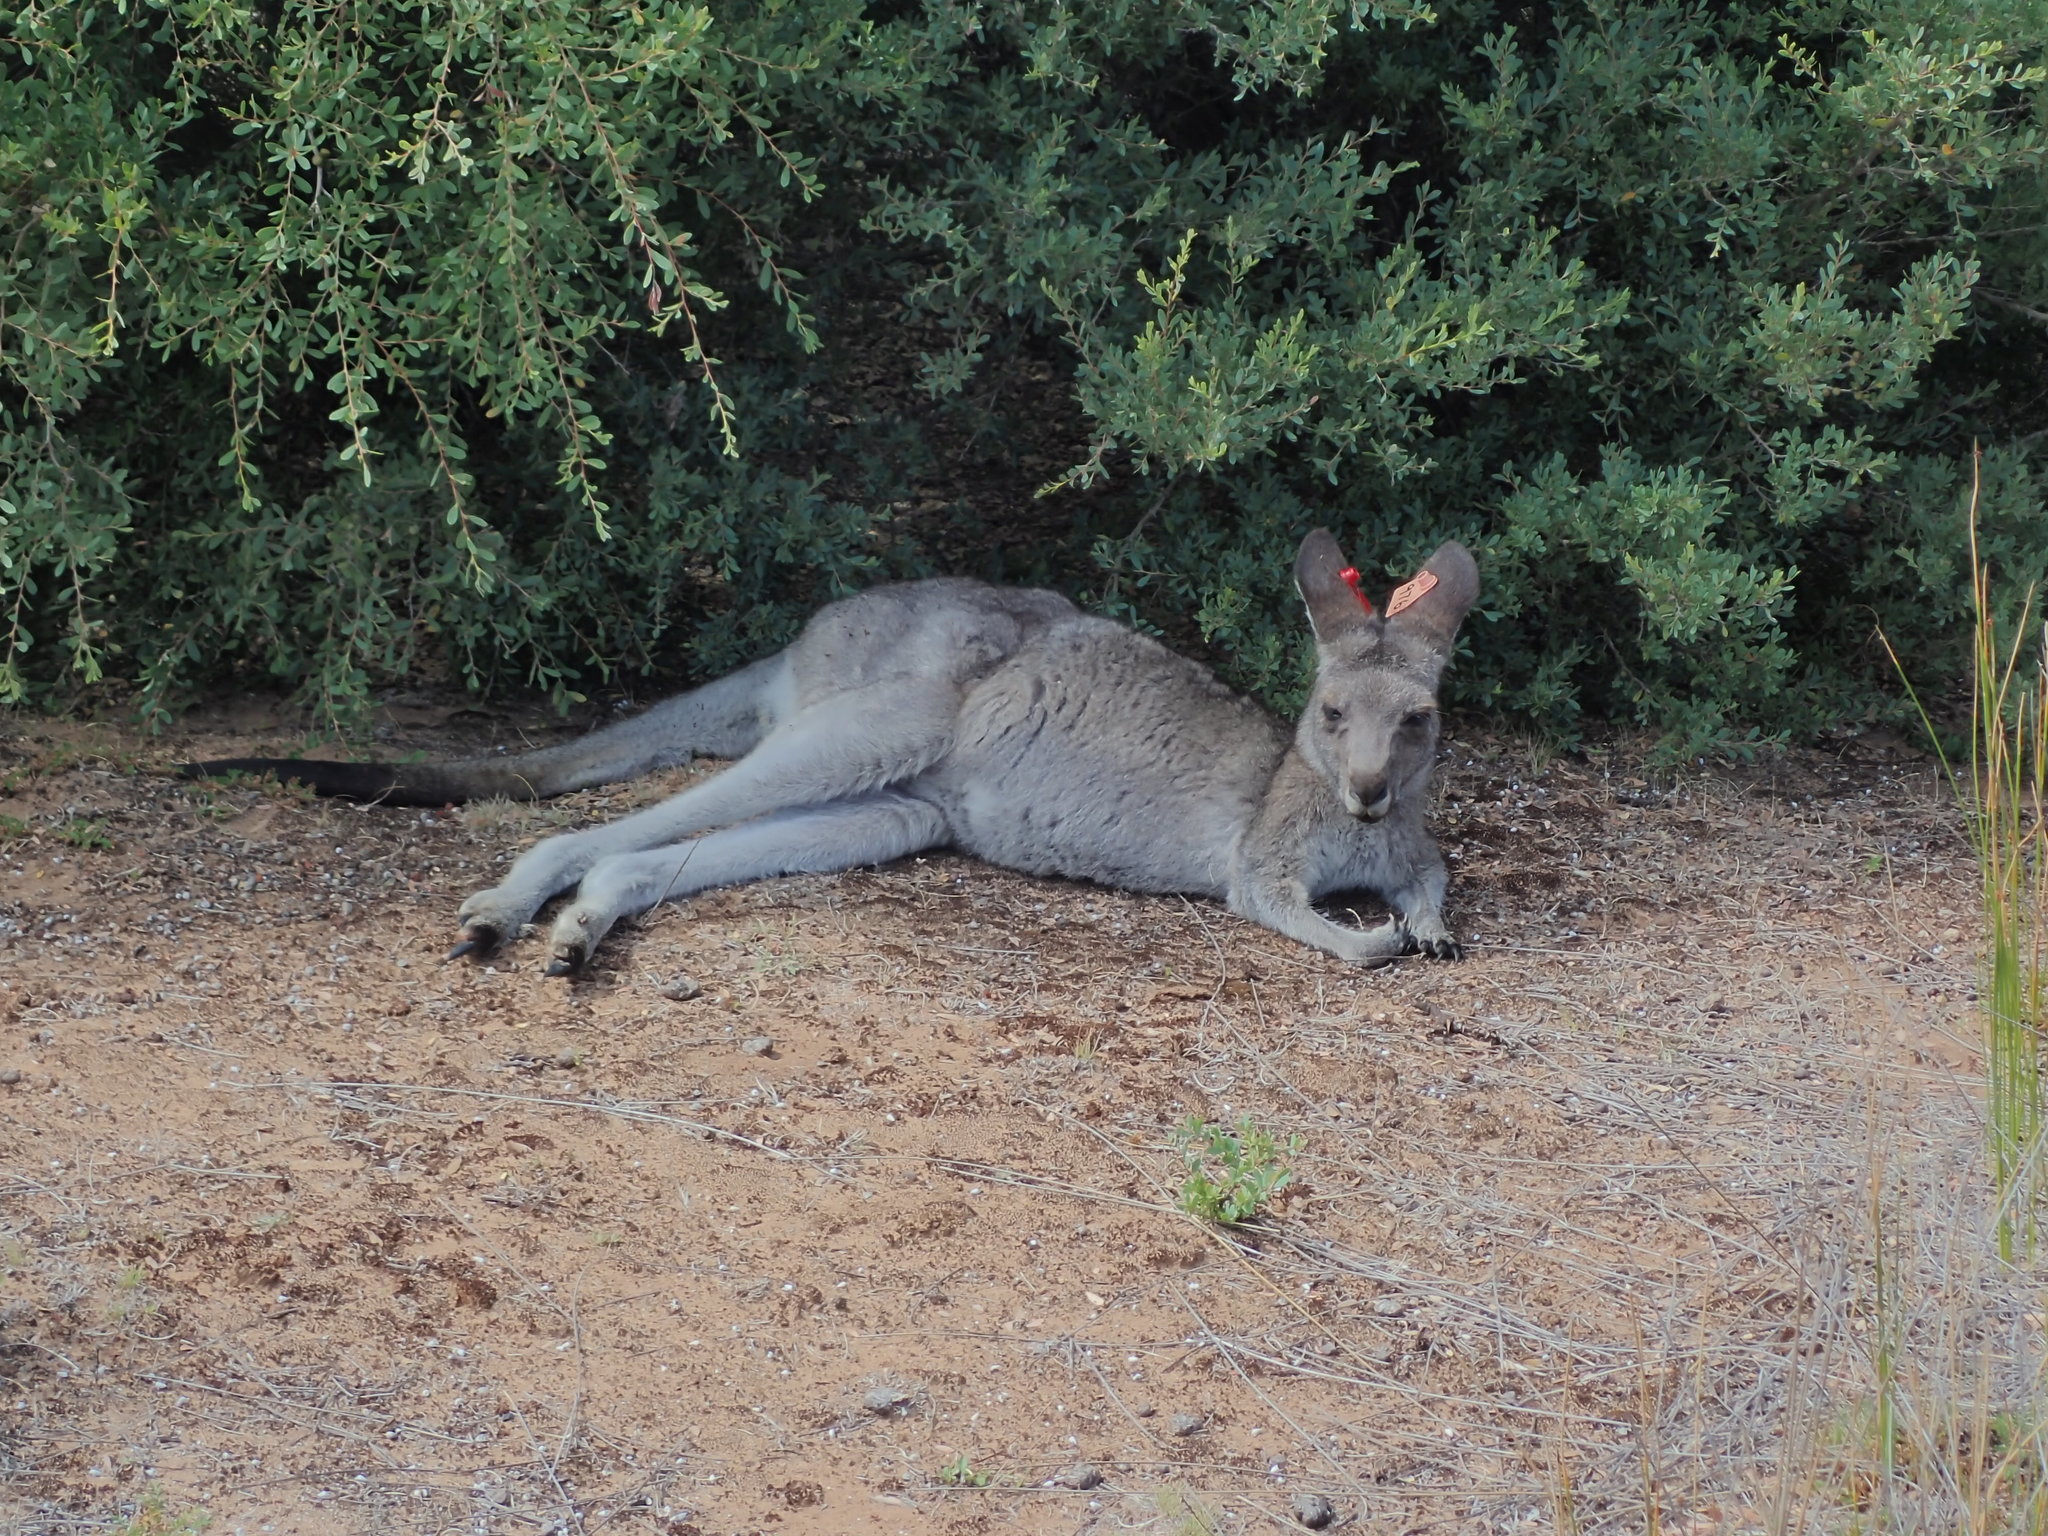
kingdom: Animalia
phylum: Chordata
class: Mammalia
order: Diprotodontia
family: Macropodidae
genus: Macropus
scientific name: Macropus giganteus
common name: Eastern grey kangaroo
